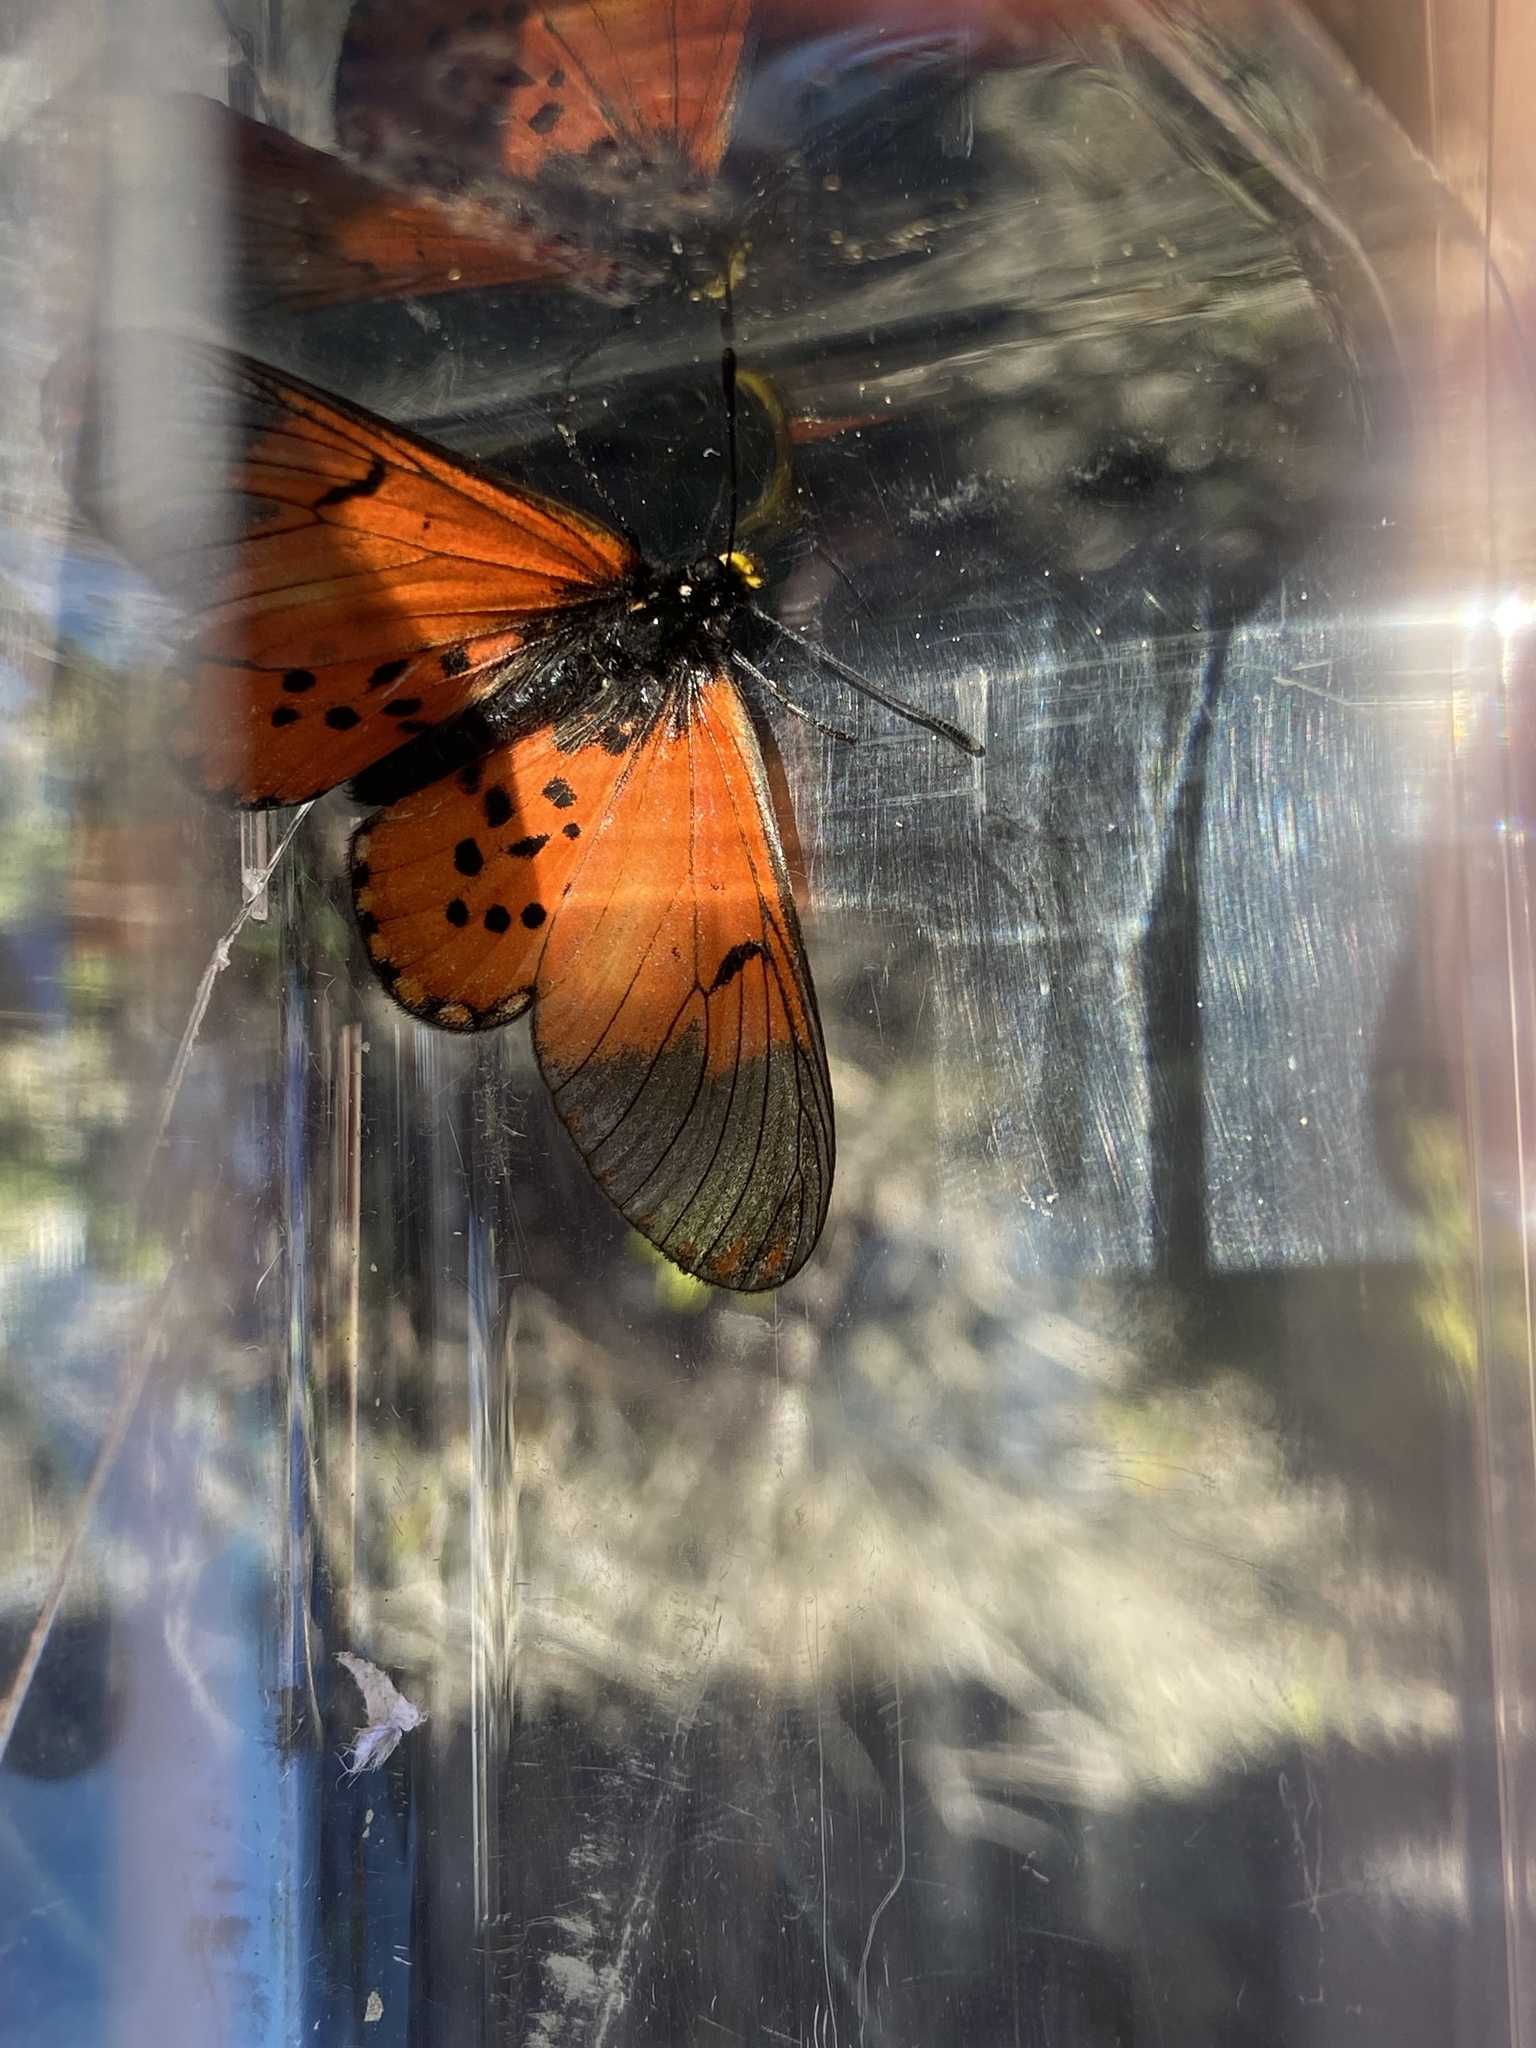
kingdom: Animalia
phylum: Arthropoda
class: Insecta
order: Lepidoptera
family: Nymphalidae
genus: Acraea
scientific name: Acraea horta
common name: Garden acraea
